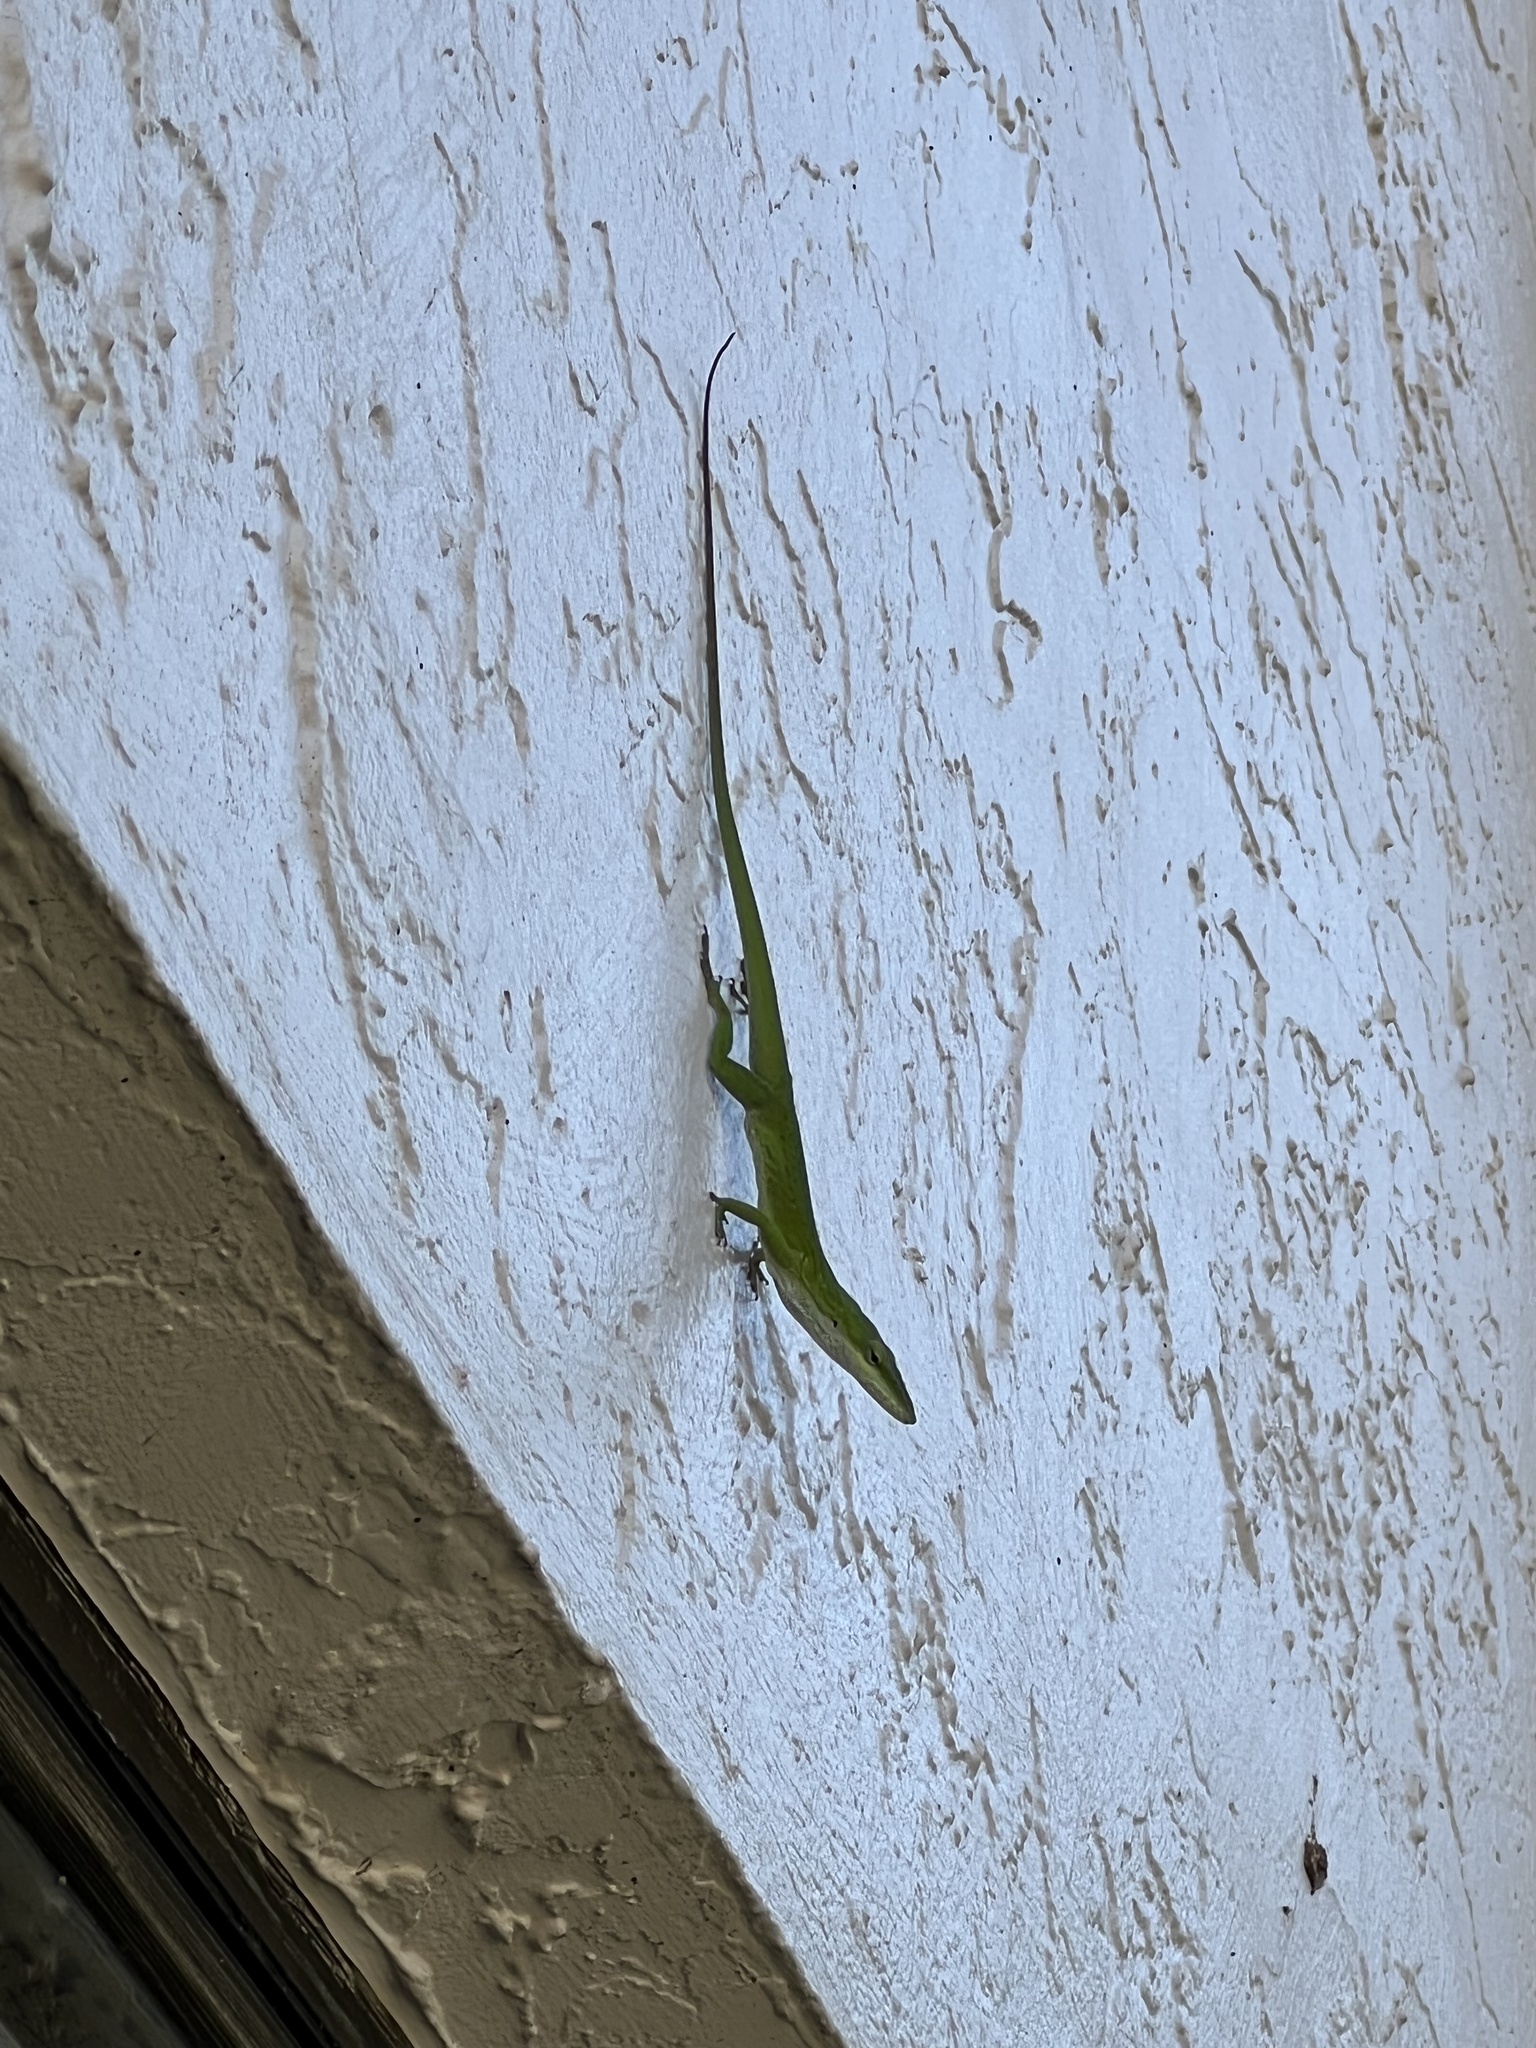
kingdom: Animalia
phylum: Chordata
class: Squamata
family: Dactyloidae
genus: Anolis
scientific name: Anolis carolinensis
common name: Green anole
